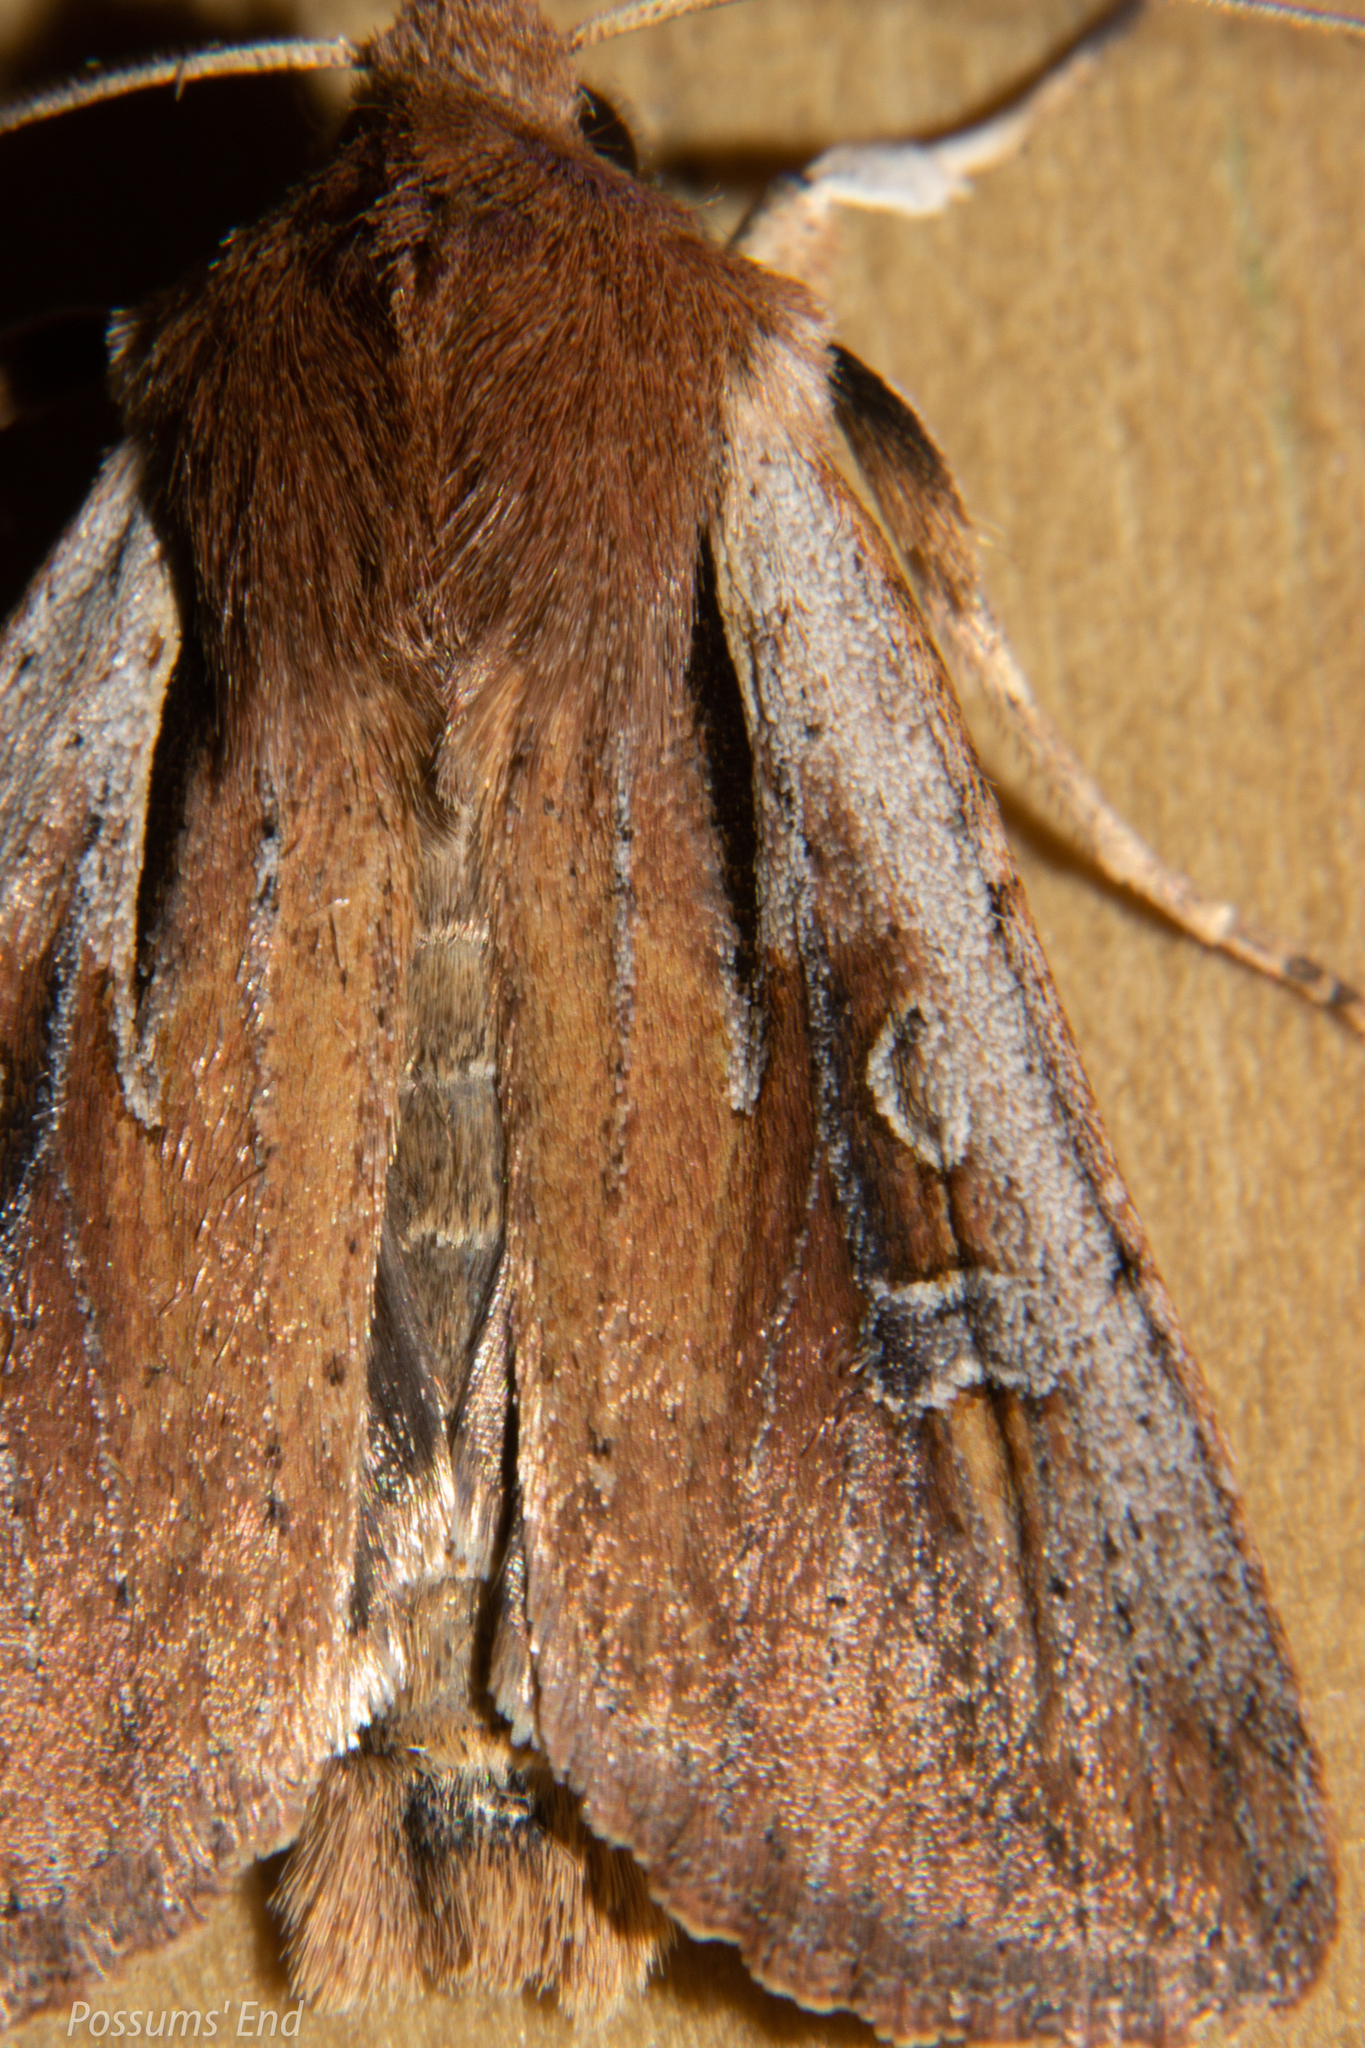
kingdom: Animalia
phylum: Arthropoda
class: Insecta
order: Lepidoptera
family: Noctuidae
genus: Ichneutica
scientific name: Ichneutica atristriga
